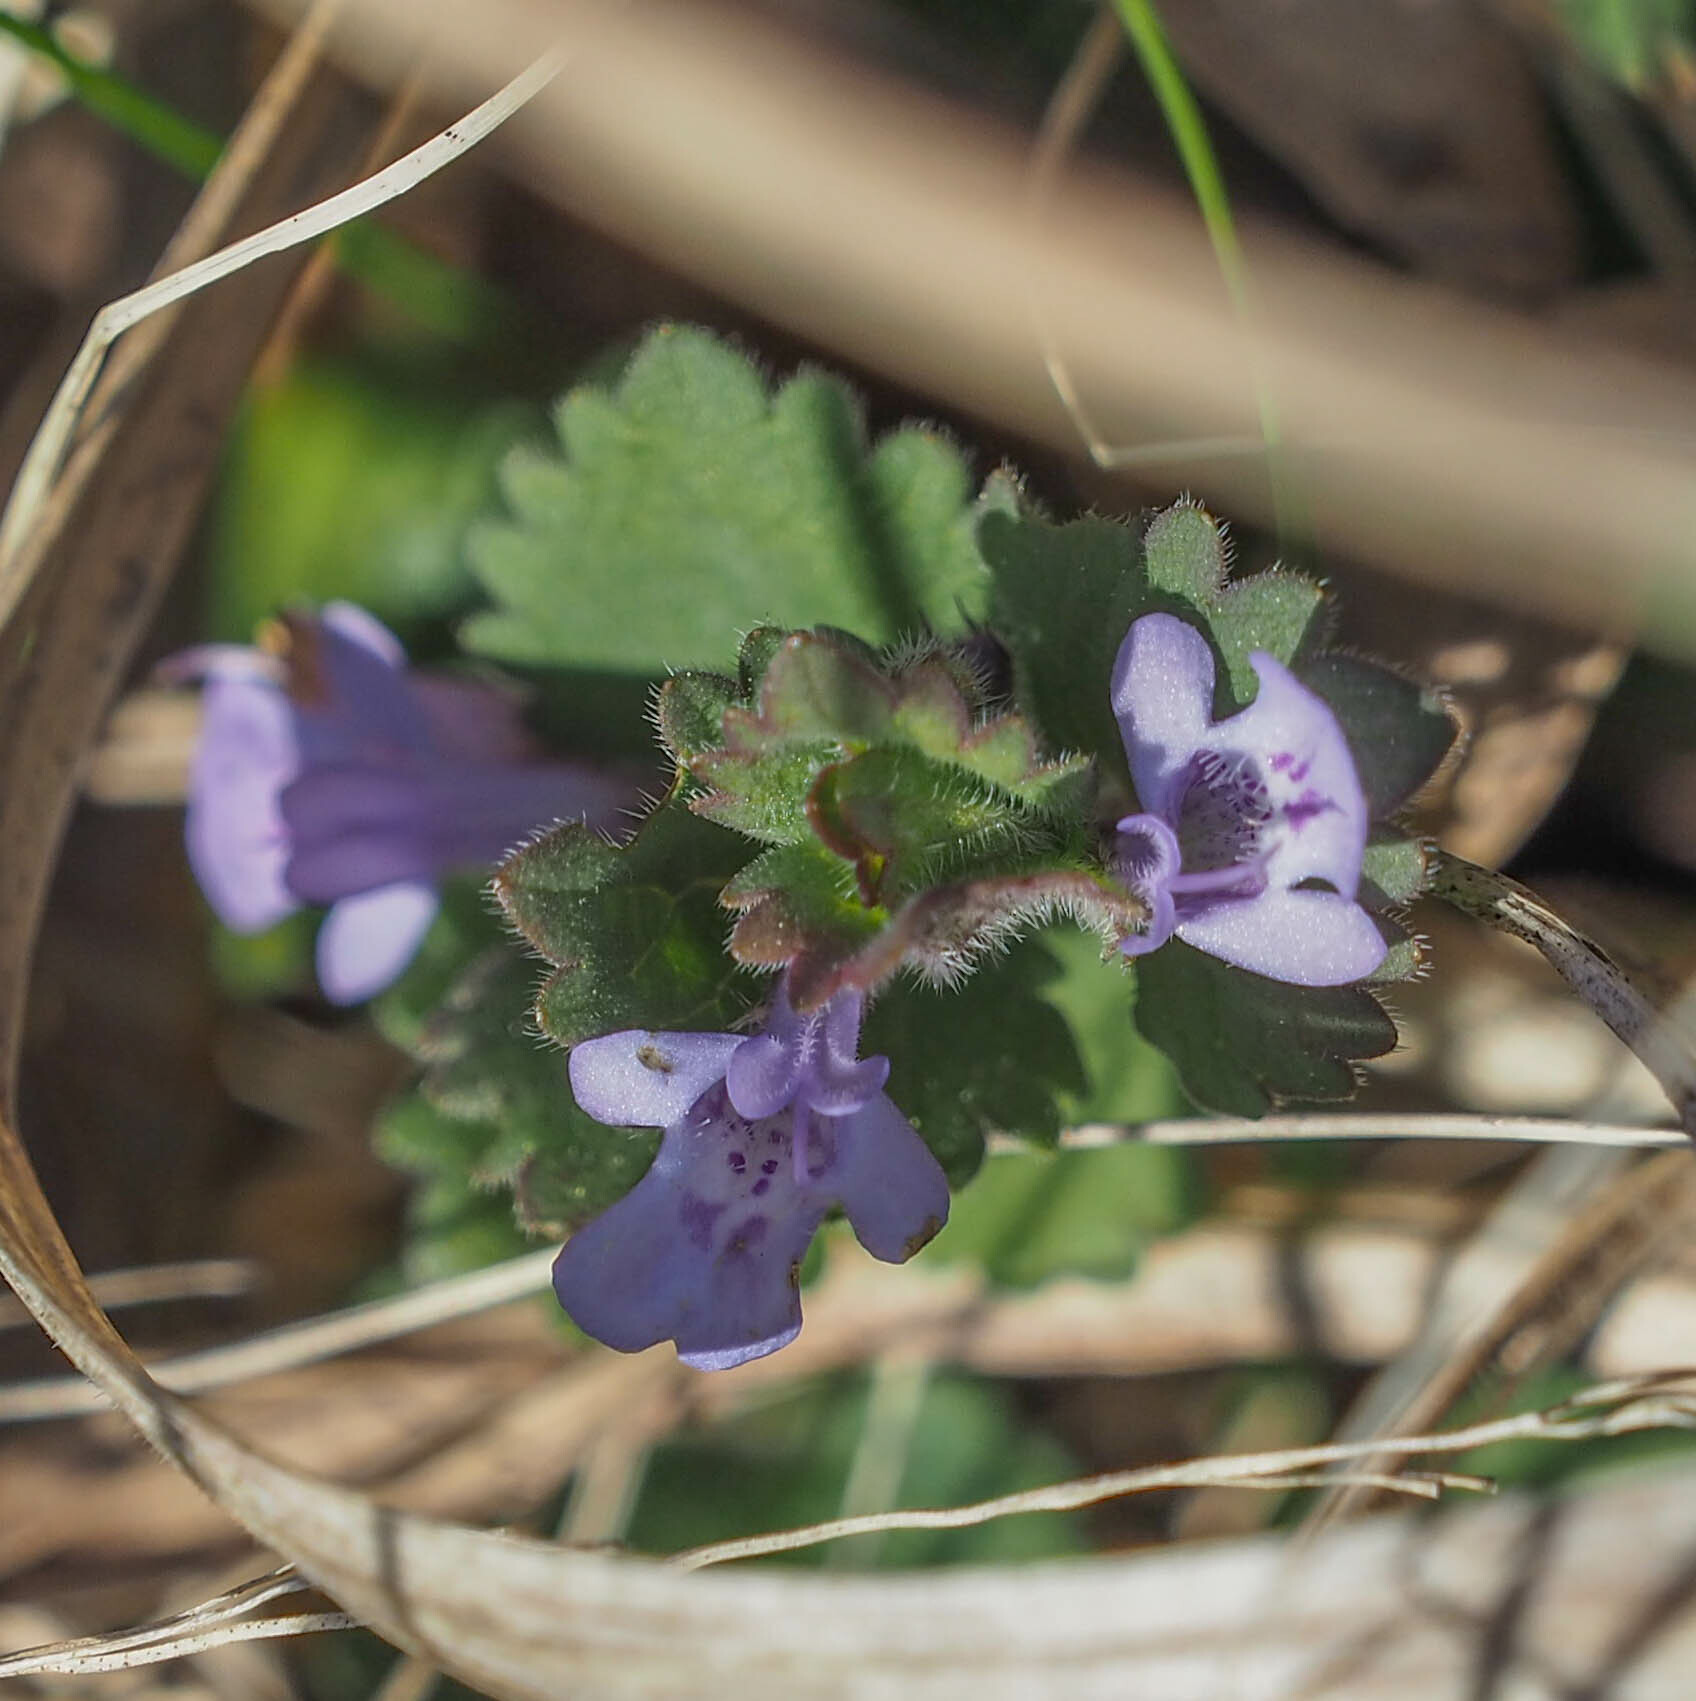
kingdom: Plantae
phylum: Tracheophyta
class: Magnoliopsida
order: Lamiales
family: Lamiaceae
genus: Glechoma
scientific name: Glechoma hederacea
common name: Ground ivy
